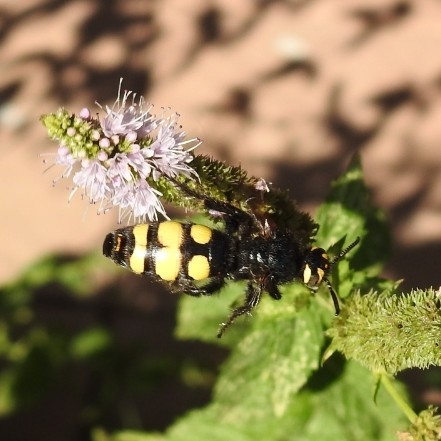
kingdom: Animalia
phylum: Arthropoda
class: Insecta
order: Hymenoptera
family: Vespidae
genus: Vespa
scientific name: Vespa sexmaculata
